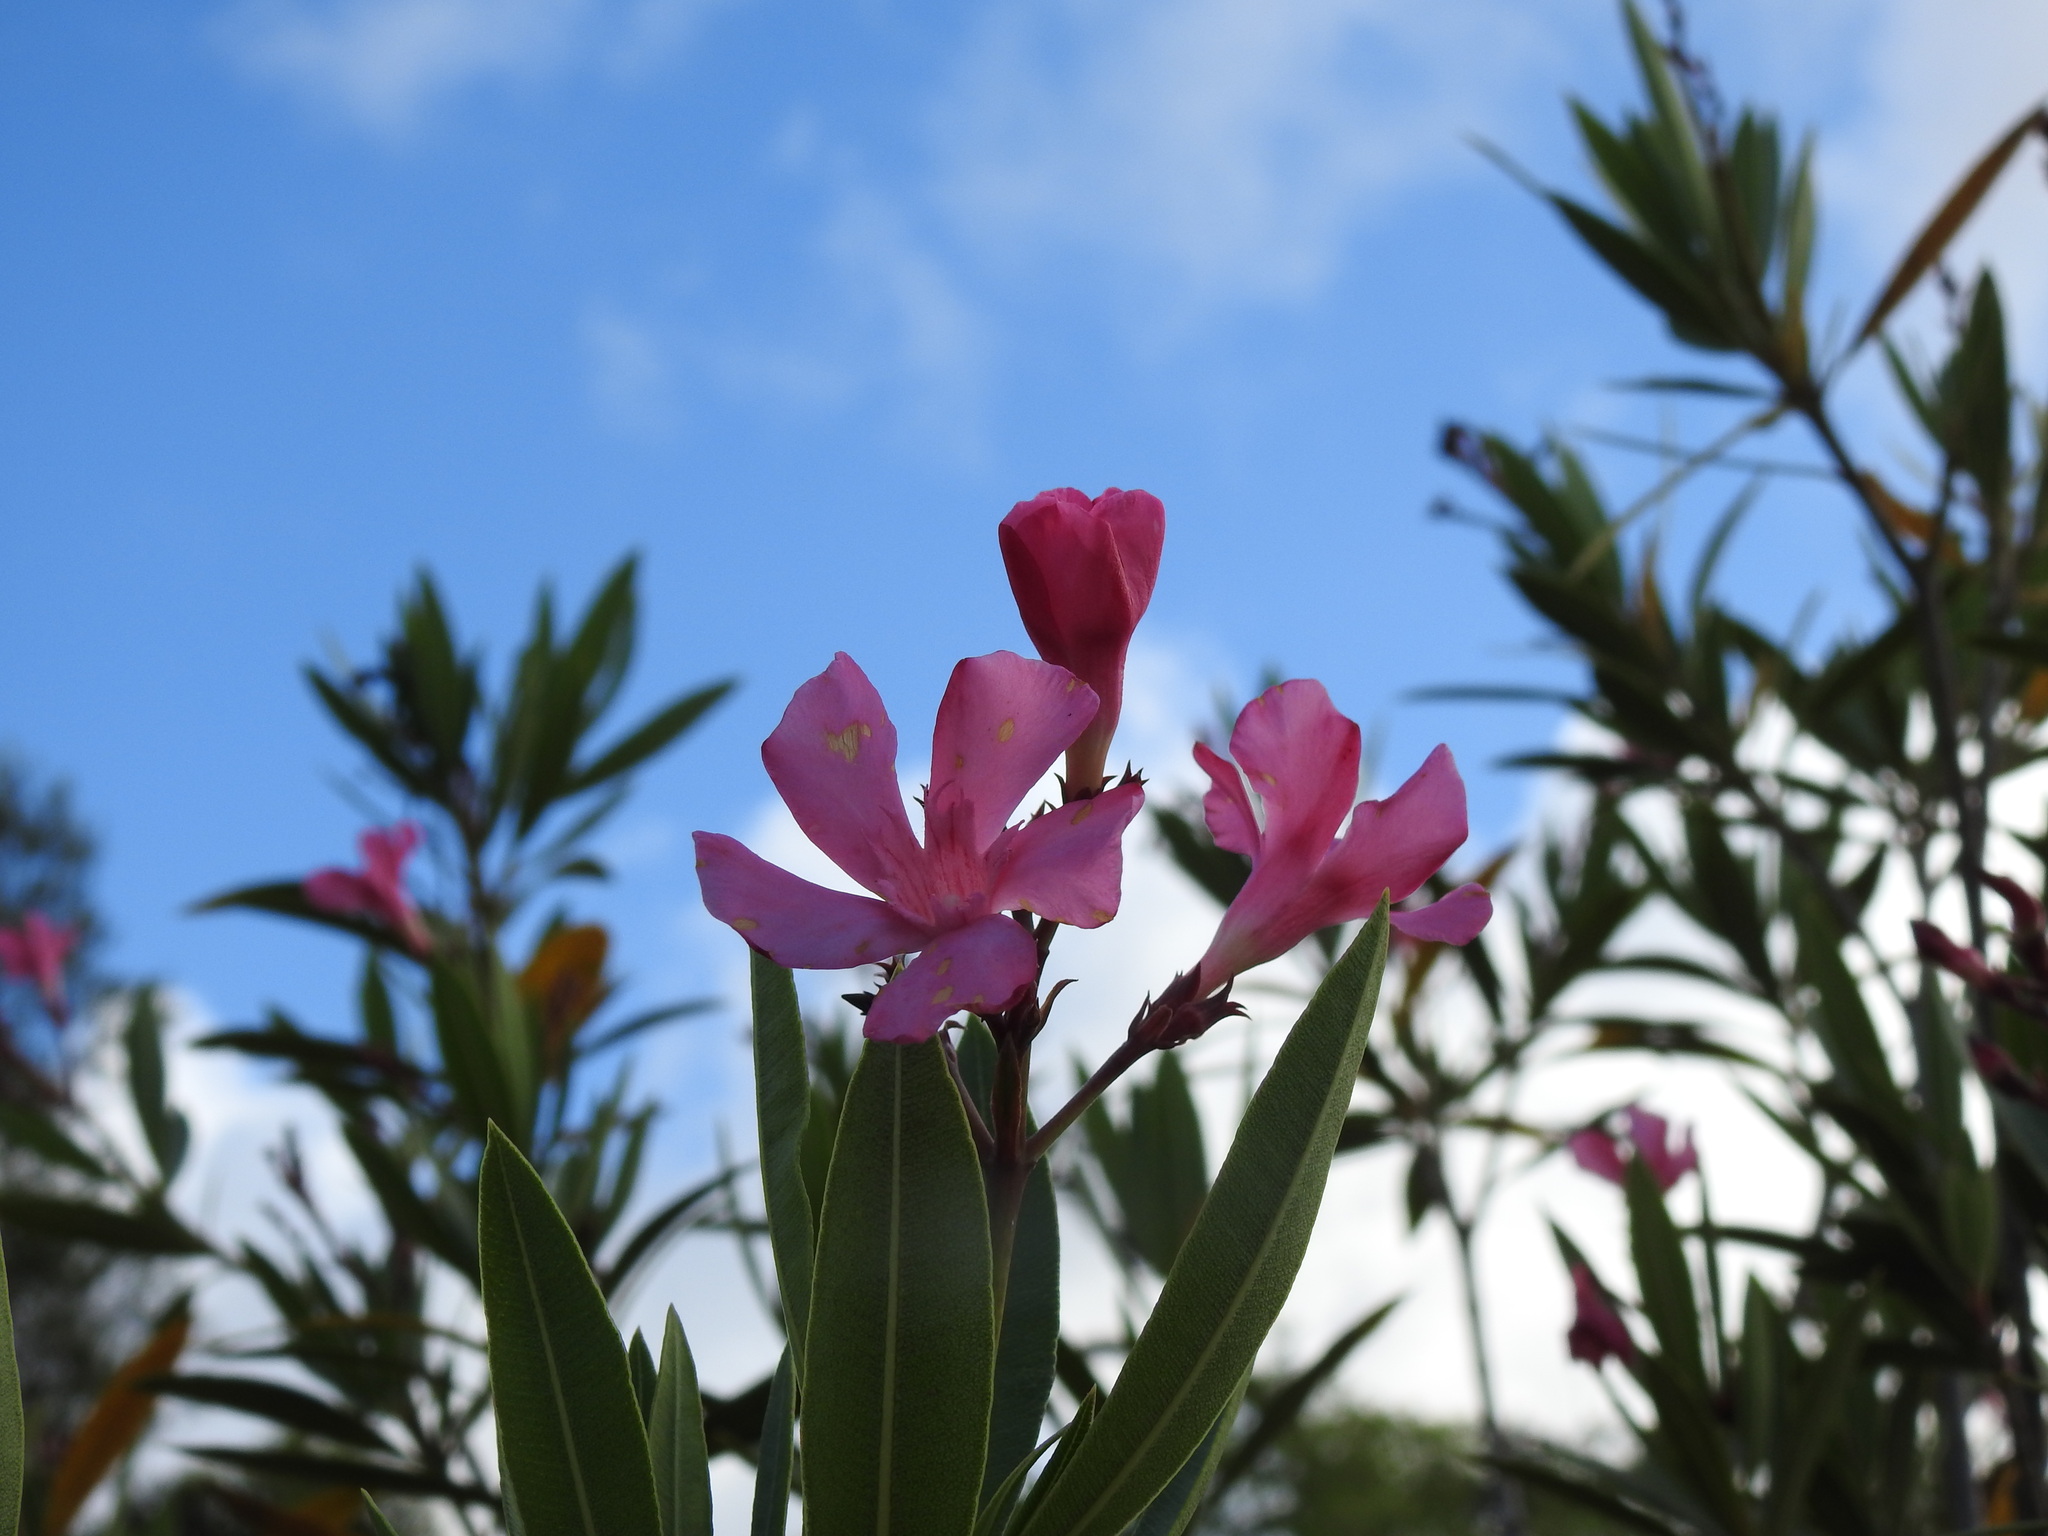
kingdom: Plantae
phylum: Tracheophyta
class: Magnoliopsida
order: Gentianales
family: Apocynaceae
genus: Nerium
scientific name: Nerium oleander
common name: Oleander
